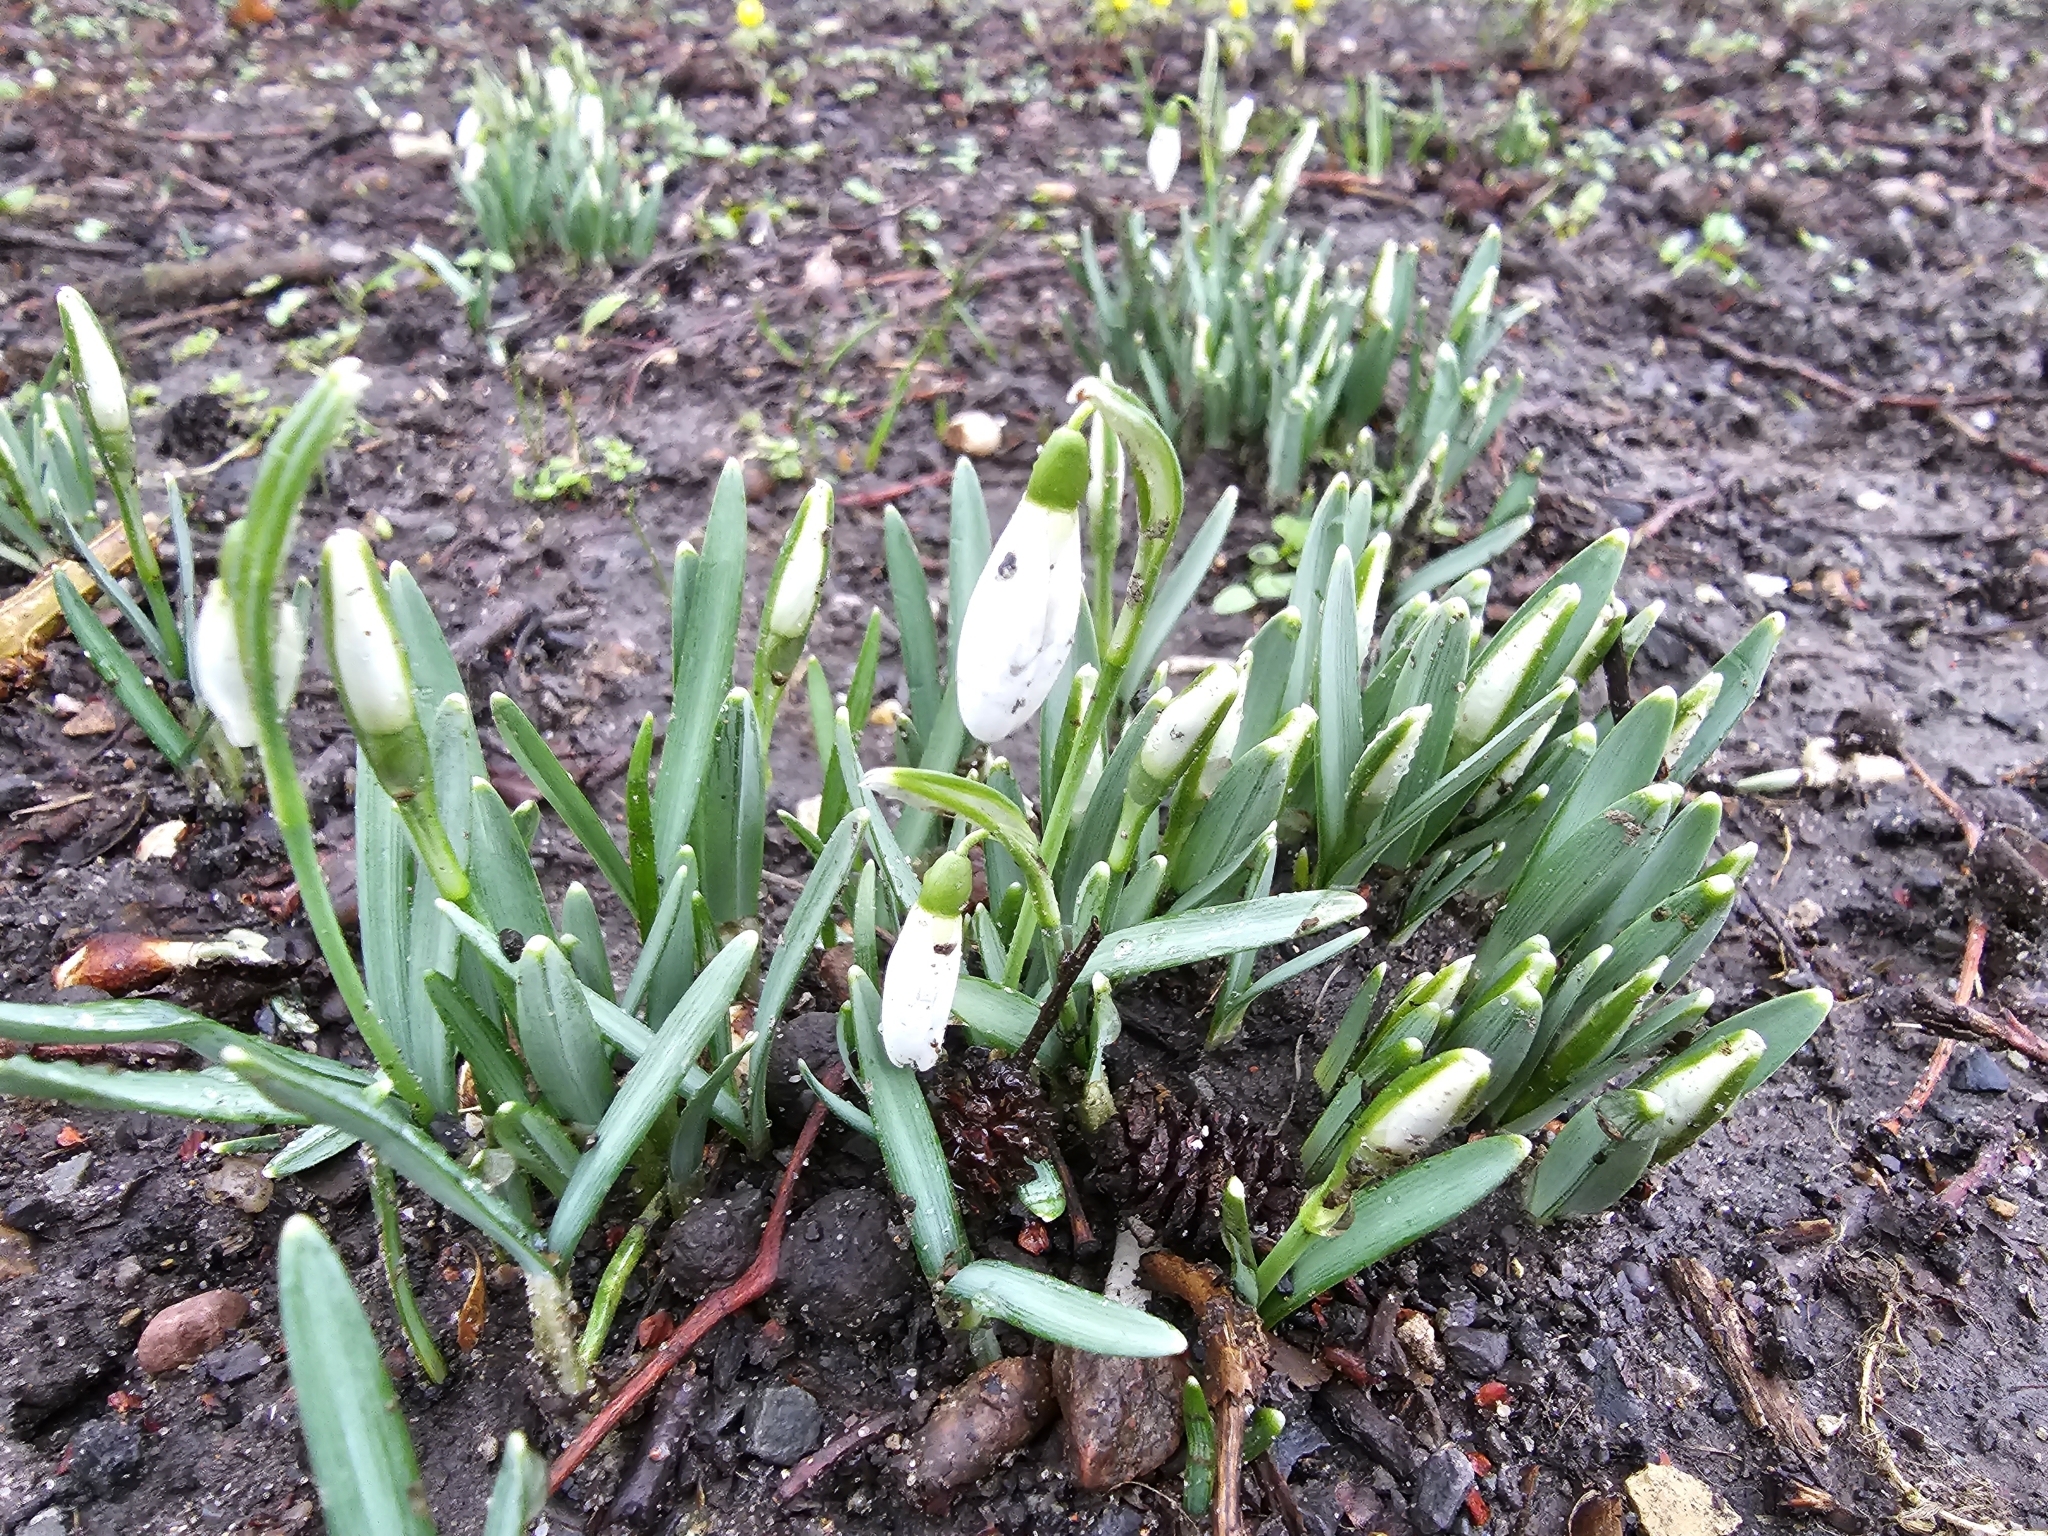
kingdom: Plantae
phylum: Tracheophyta
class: Liliopsida
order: Asparagales
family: Amaryllidaceae
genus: Galanthus
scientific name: Galanthus nivalis
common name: Snowdrop
